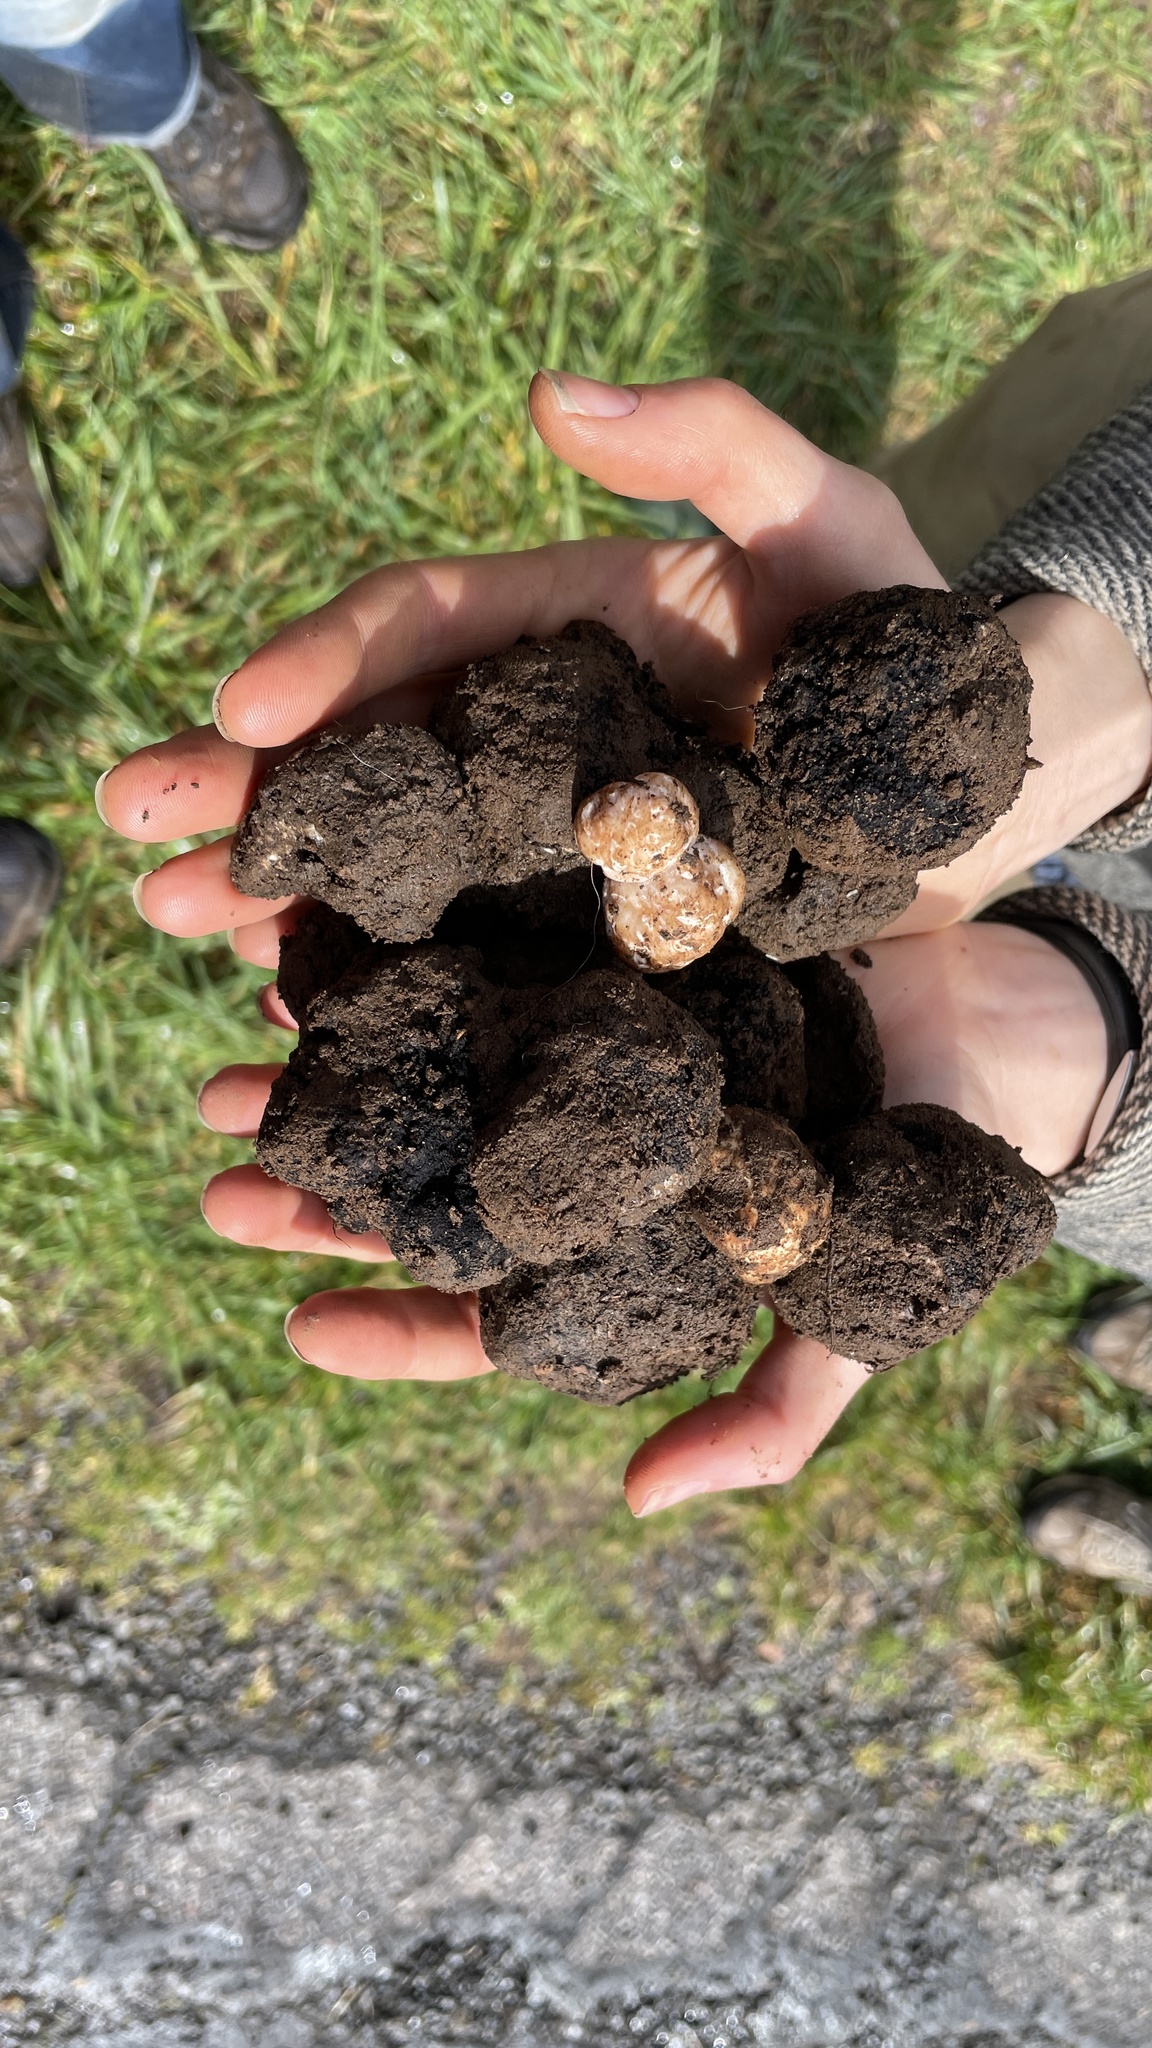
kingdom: Fungi
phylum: Ascomycota
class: Pezizomycetes
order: Pezizales
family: Morchellaceae
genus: Leucangium
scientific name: Leucangium carthusianum
